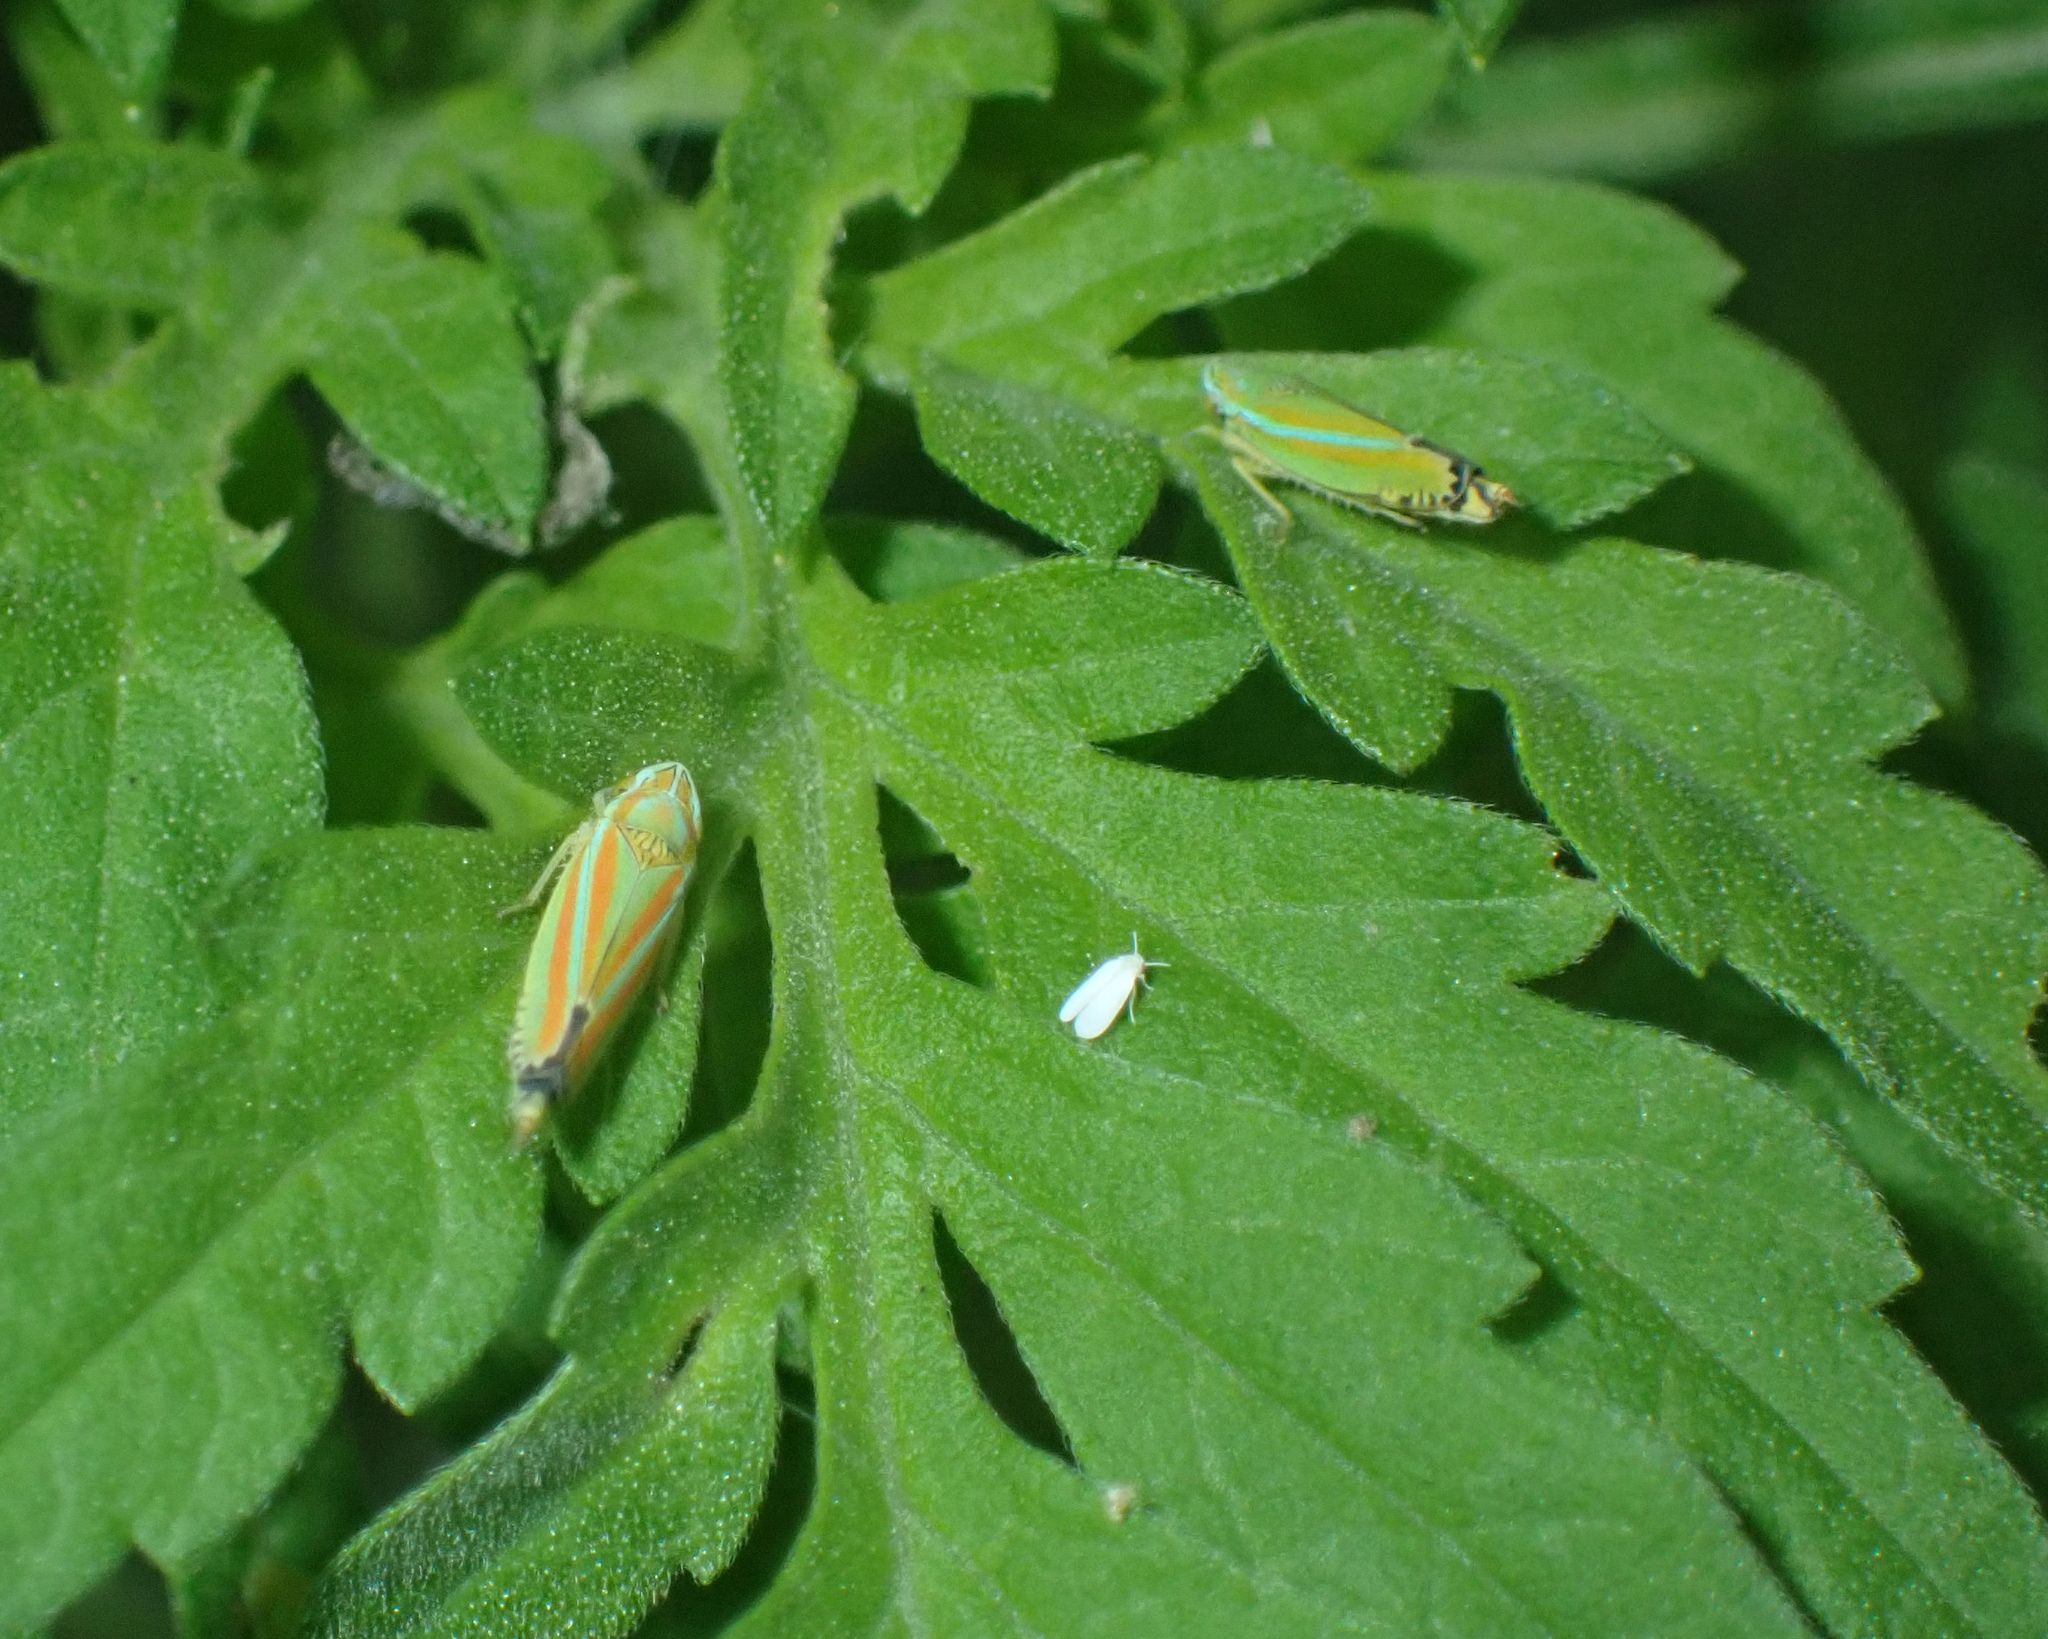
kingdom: Animalia
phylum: Arthropoda
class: Insecta
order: Hemiptera
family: Cicadellidae
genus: Graphocephala
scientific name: Graphocephala versuta
